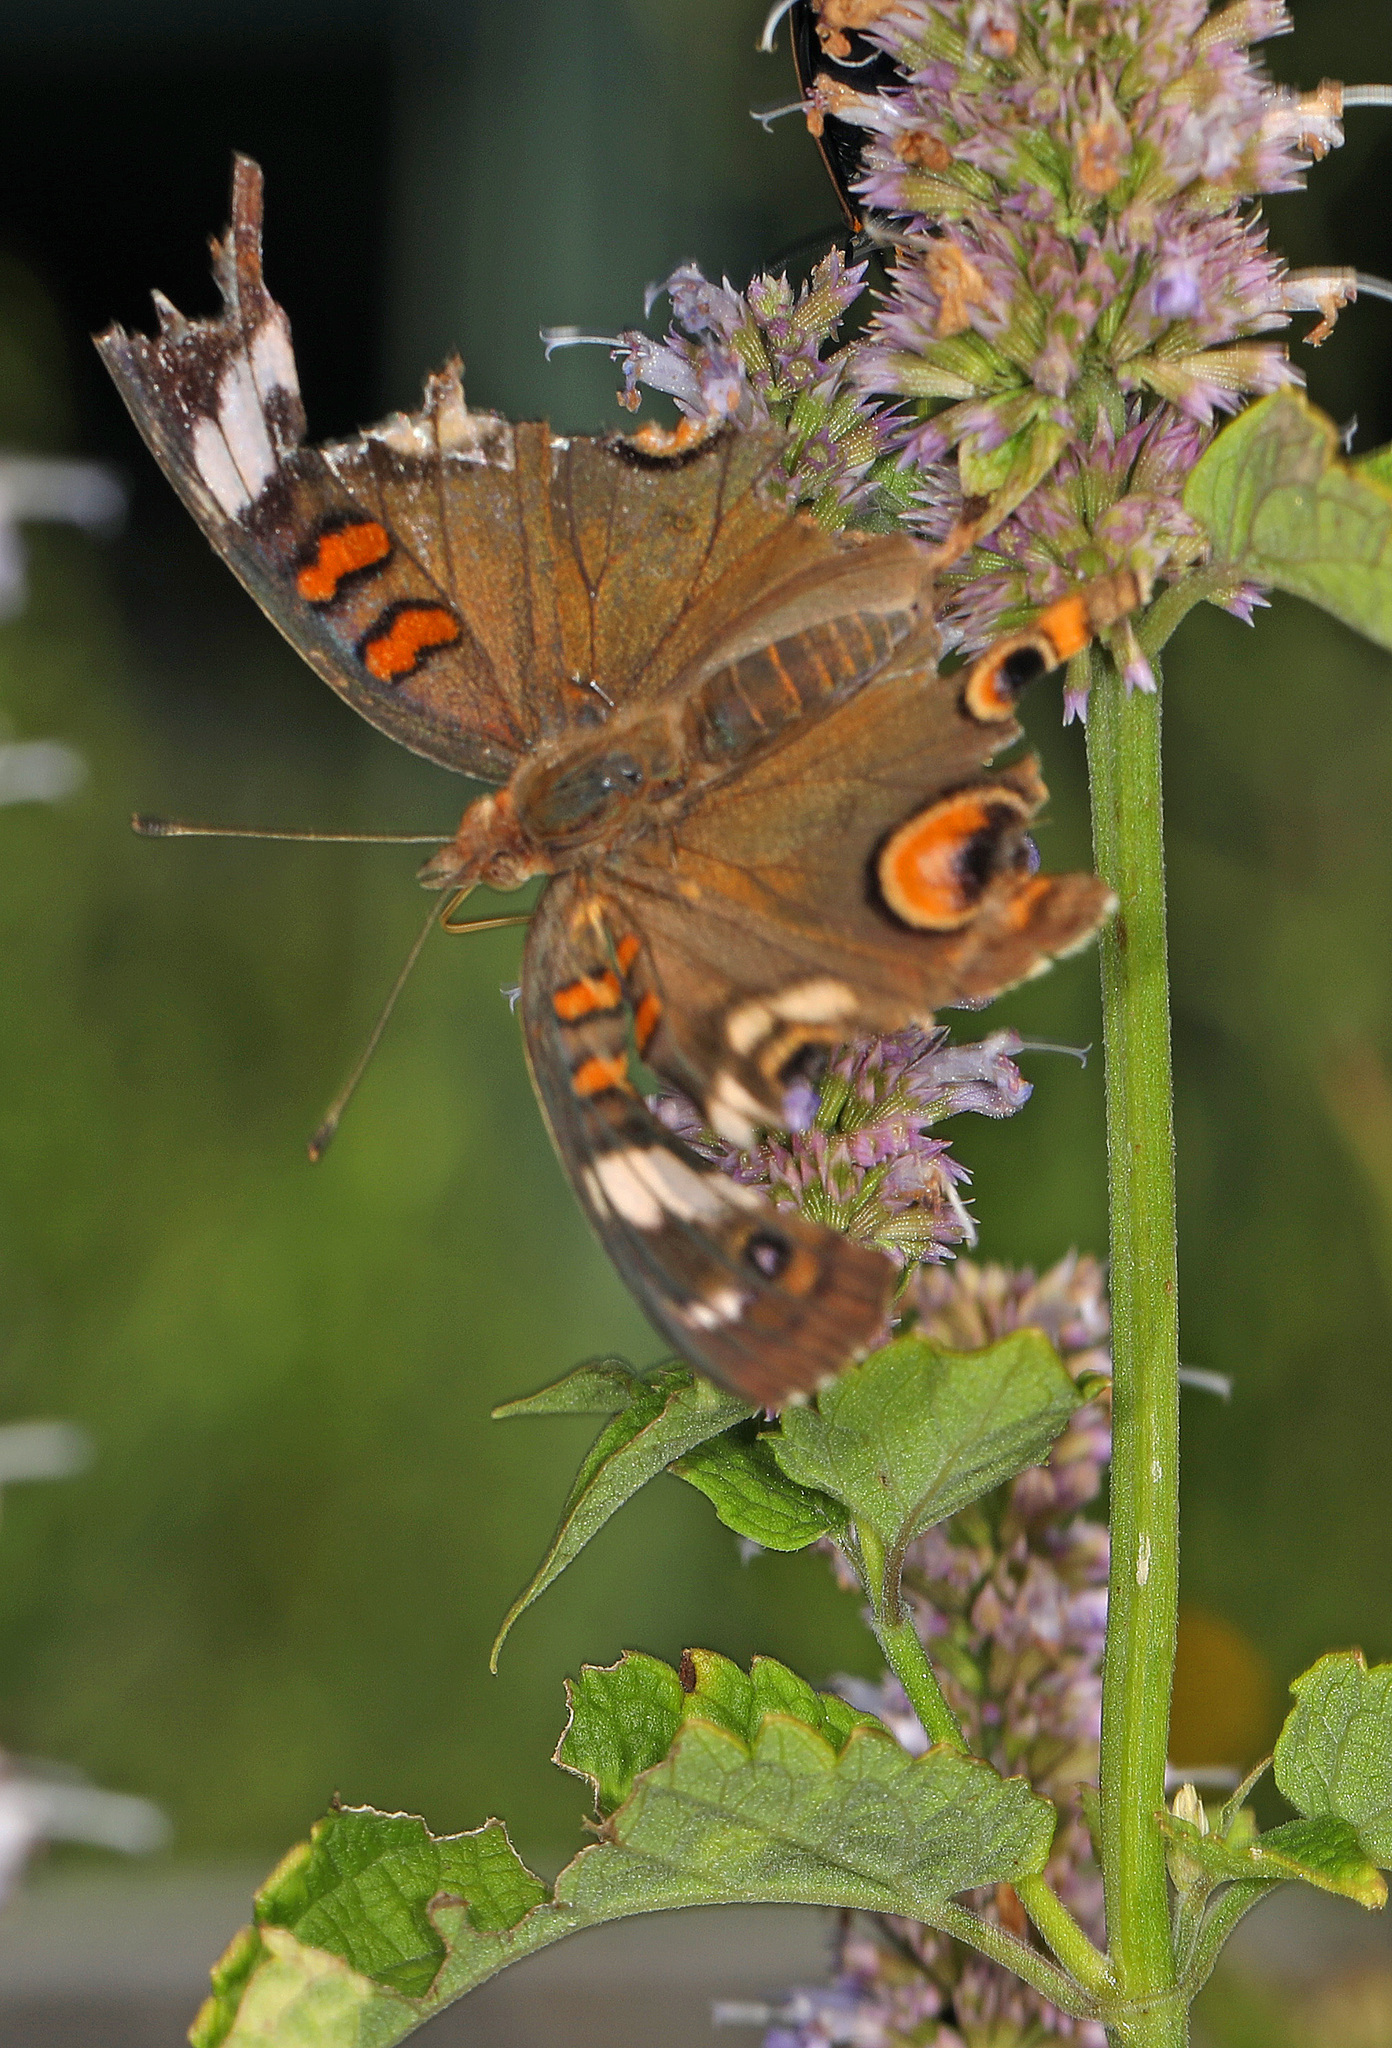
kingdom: Animalia
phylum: Arthropoda
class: Insecta
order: Lepidoptera
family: Nymphalidae
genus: Junonia
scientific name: Junonia coenia
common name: Common buckeye
